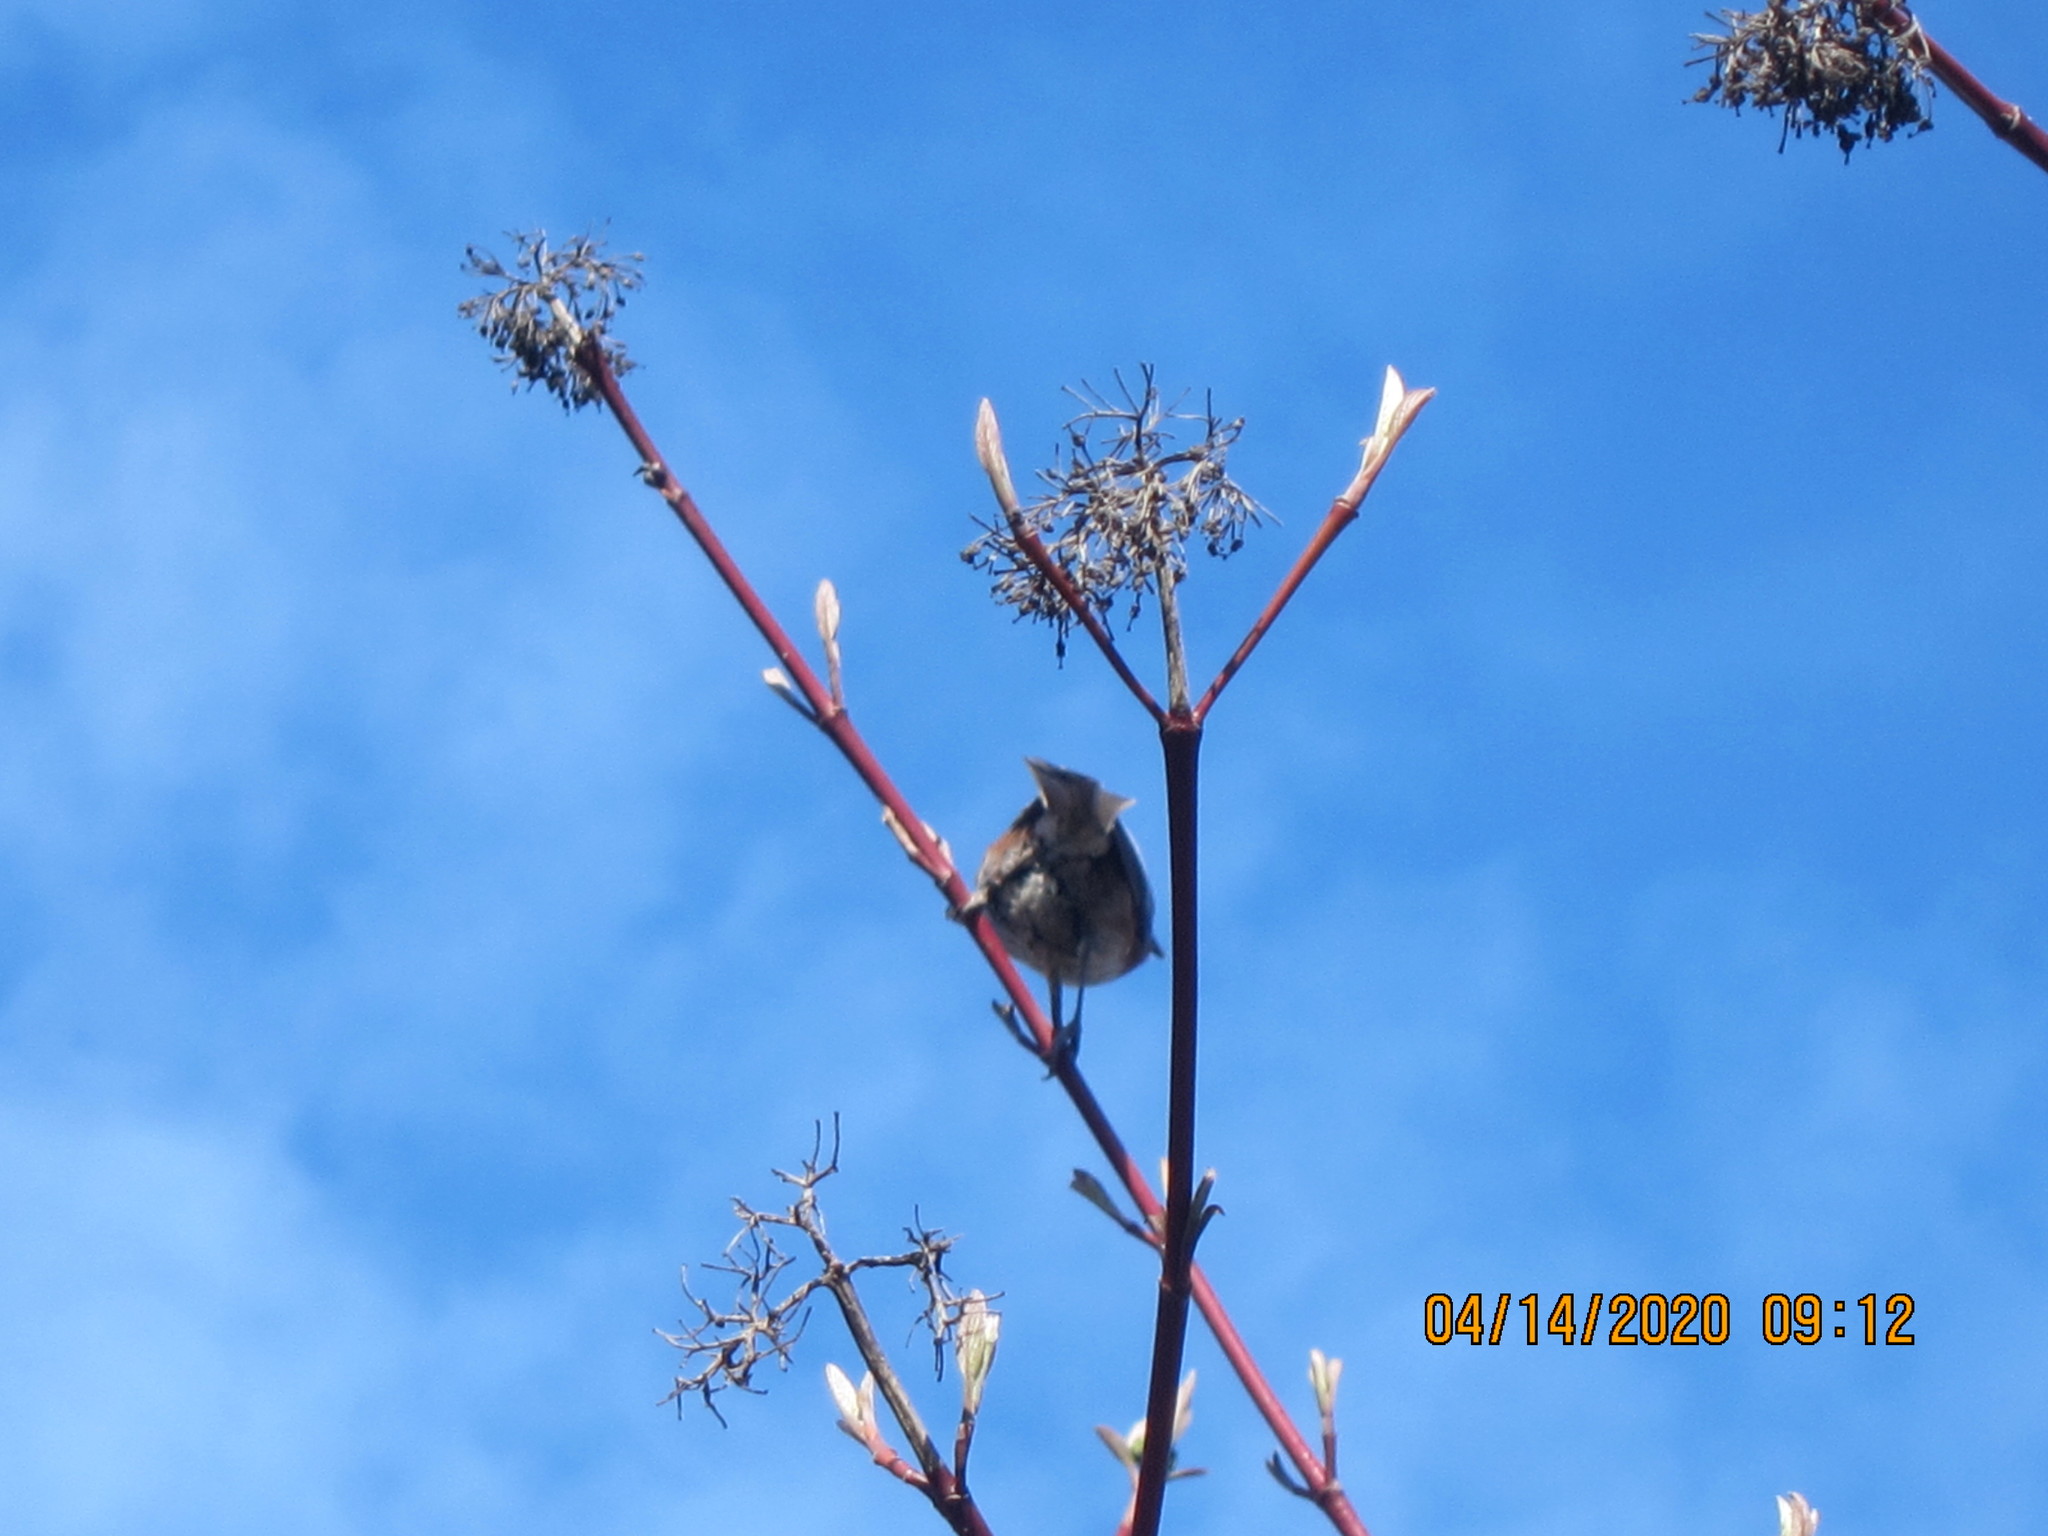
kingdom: Animalia
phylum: Chordata
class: Aves
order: Passeriformes
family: Paridae
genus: Poecile
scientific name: Poecile rufescens
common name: Chestnut-backed chickadee
